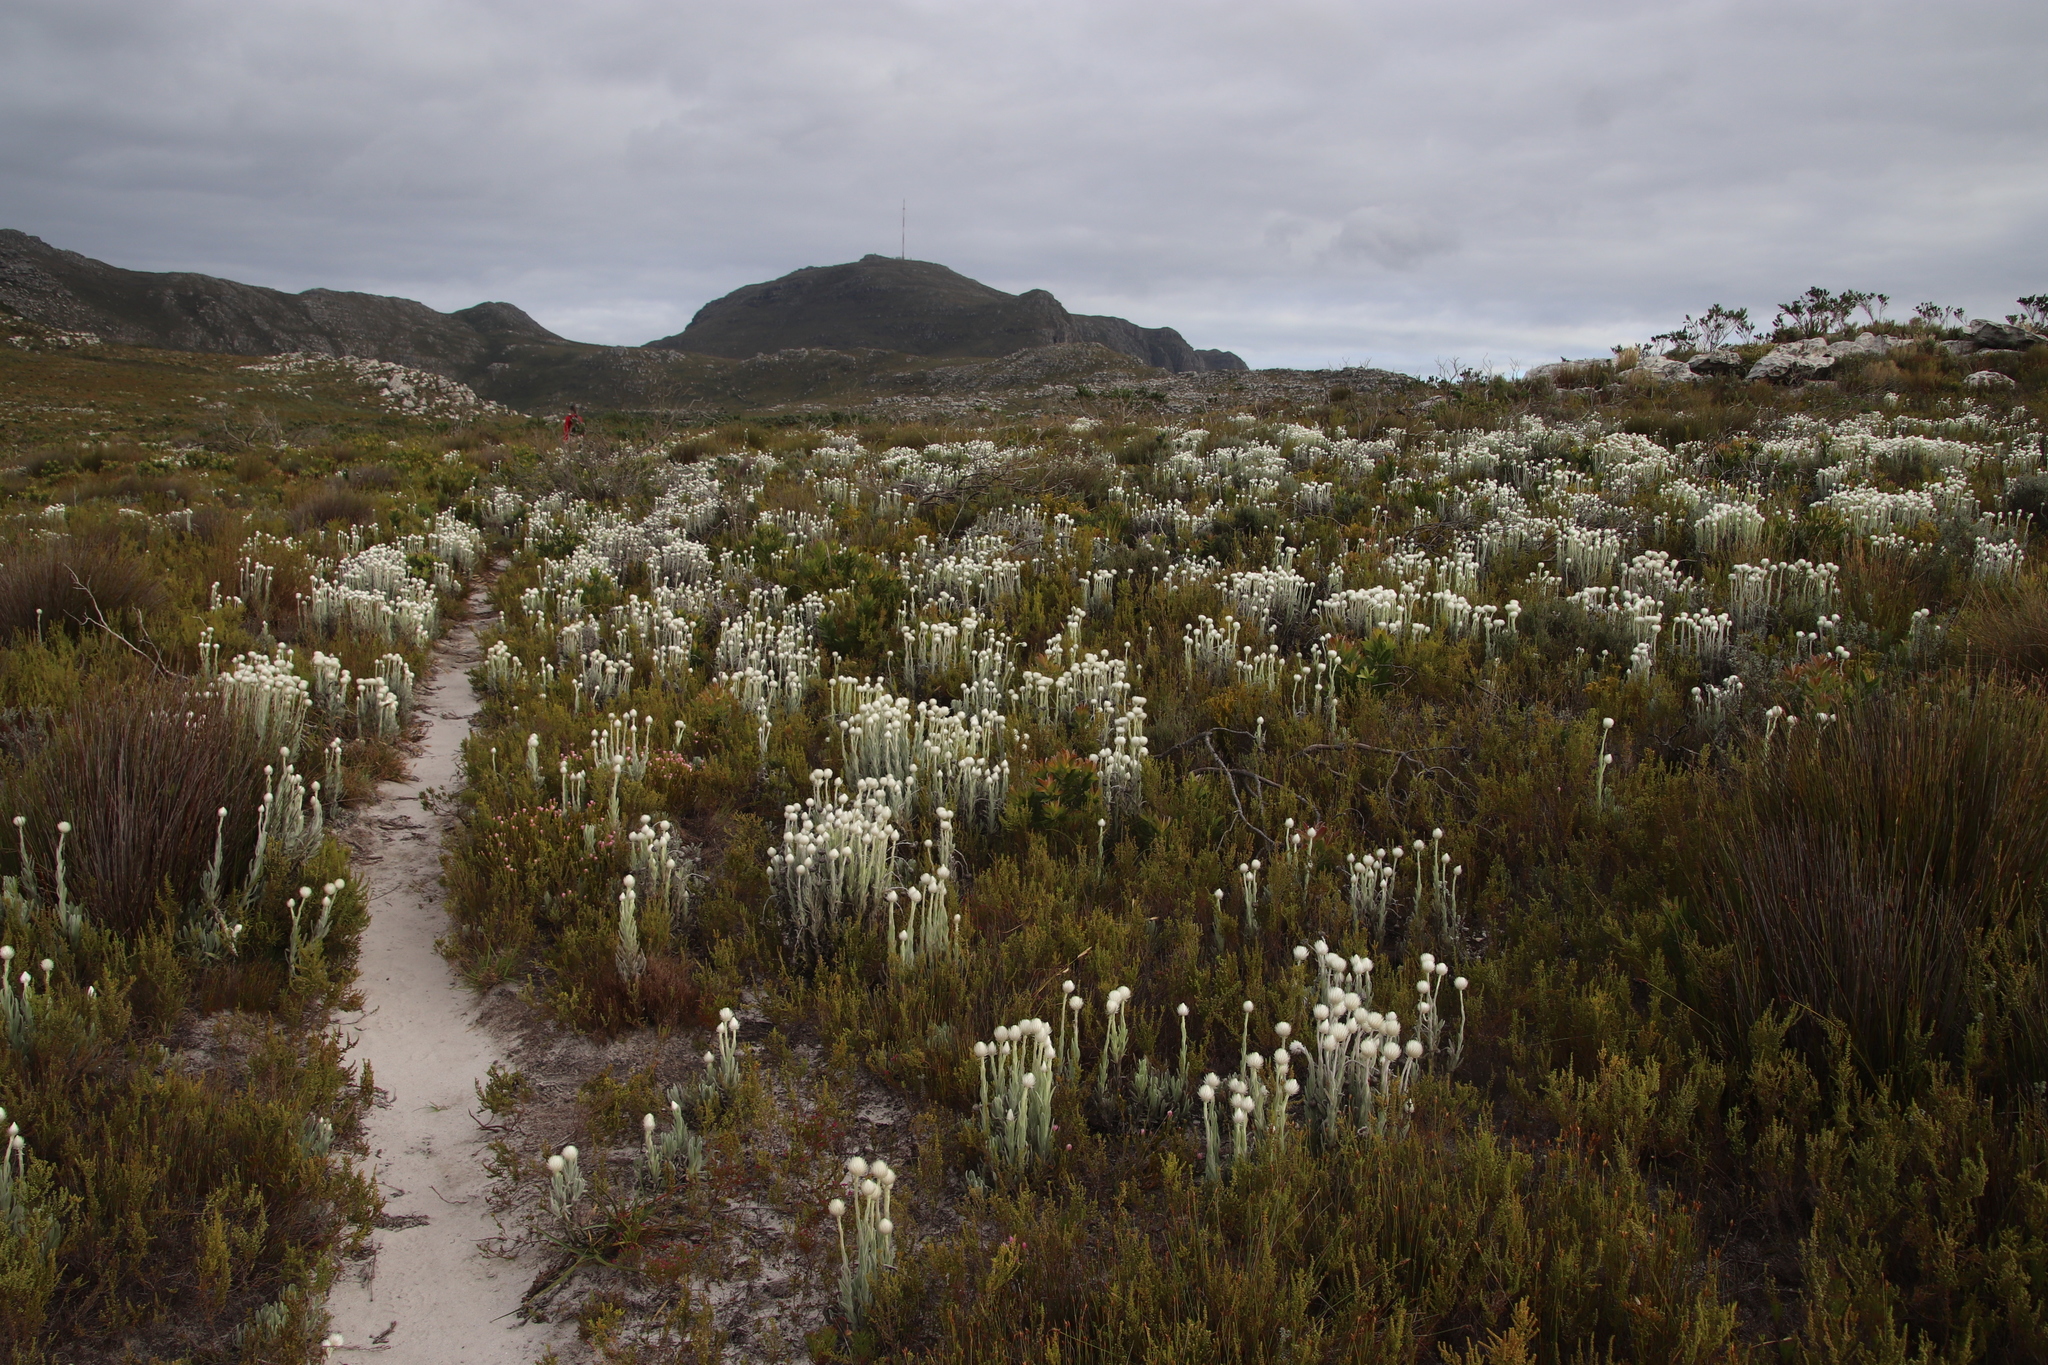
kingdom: Plantae
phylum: Tracheophyta
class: Magnoliopsida
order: Asterales
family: Asteraceae
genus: Syncarpha
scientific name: Syncarpha vestita
